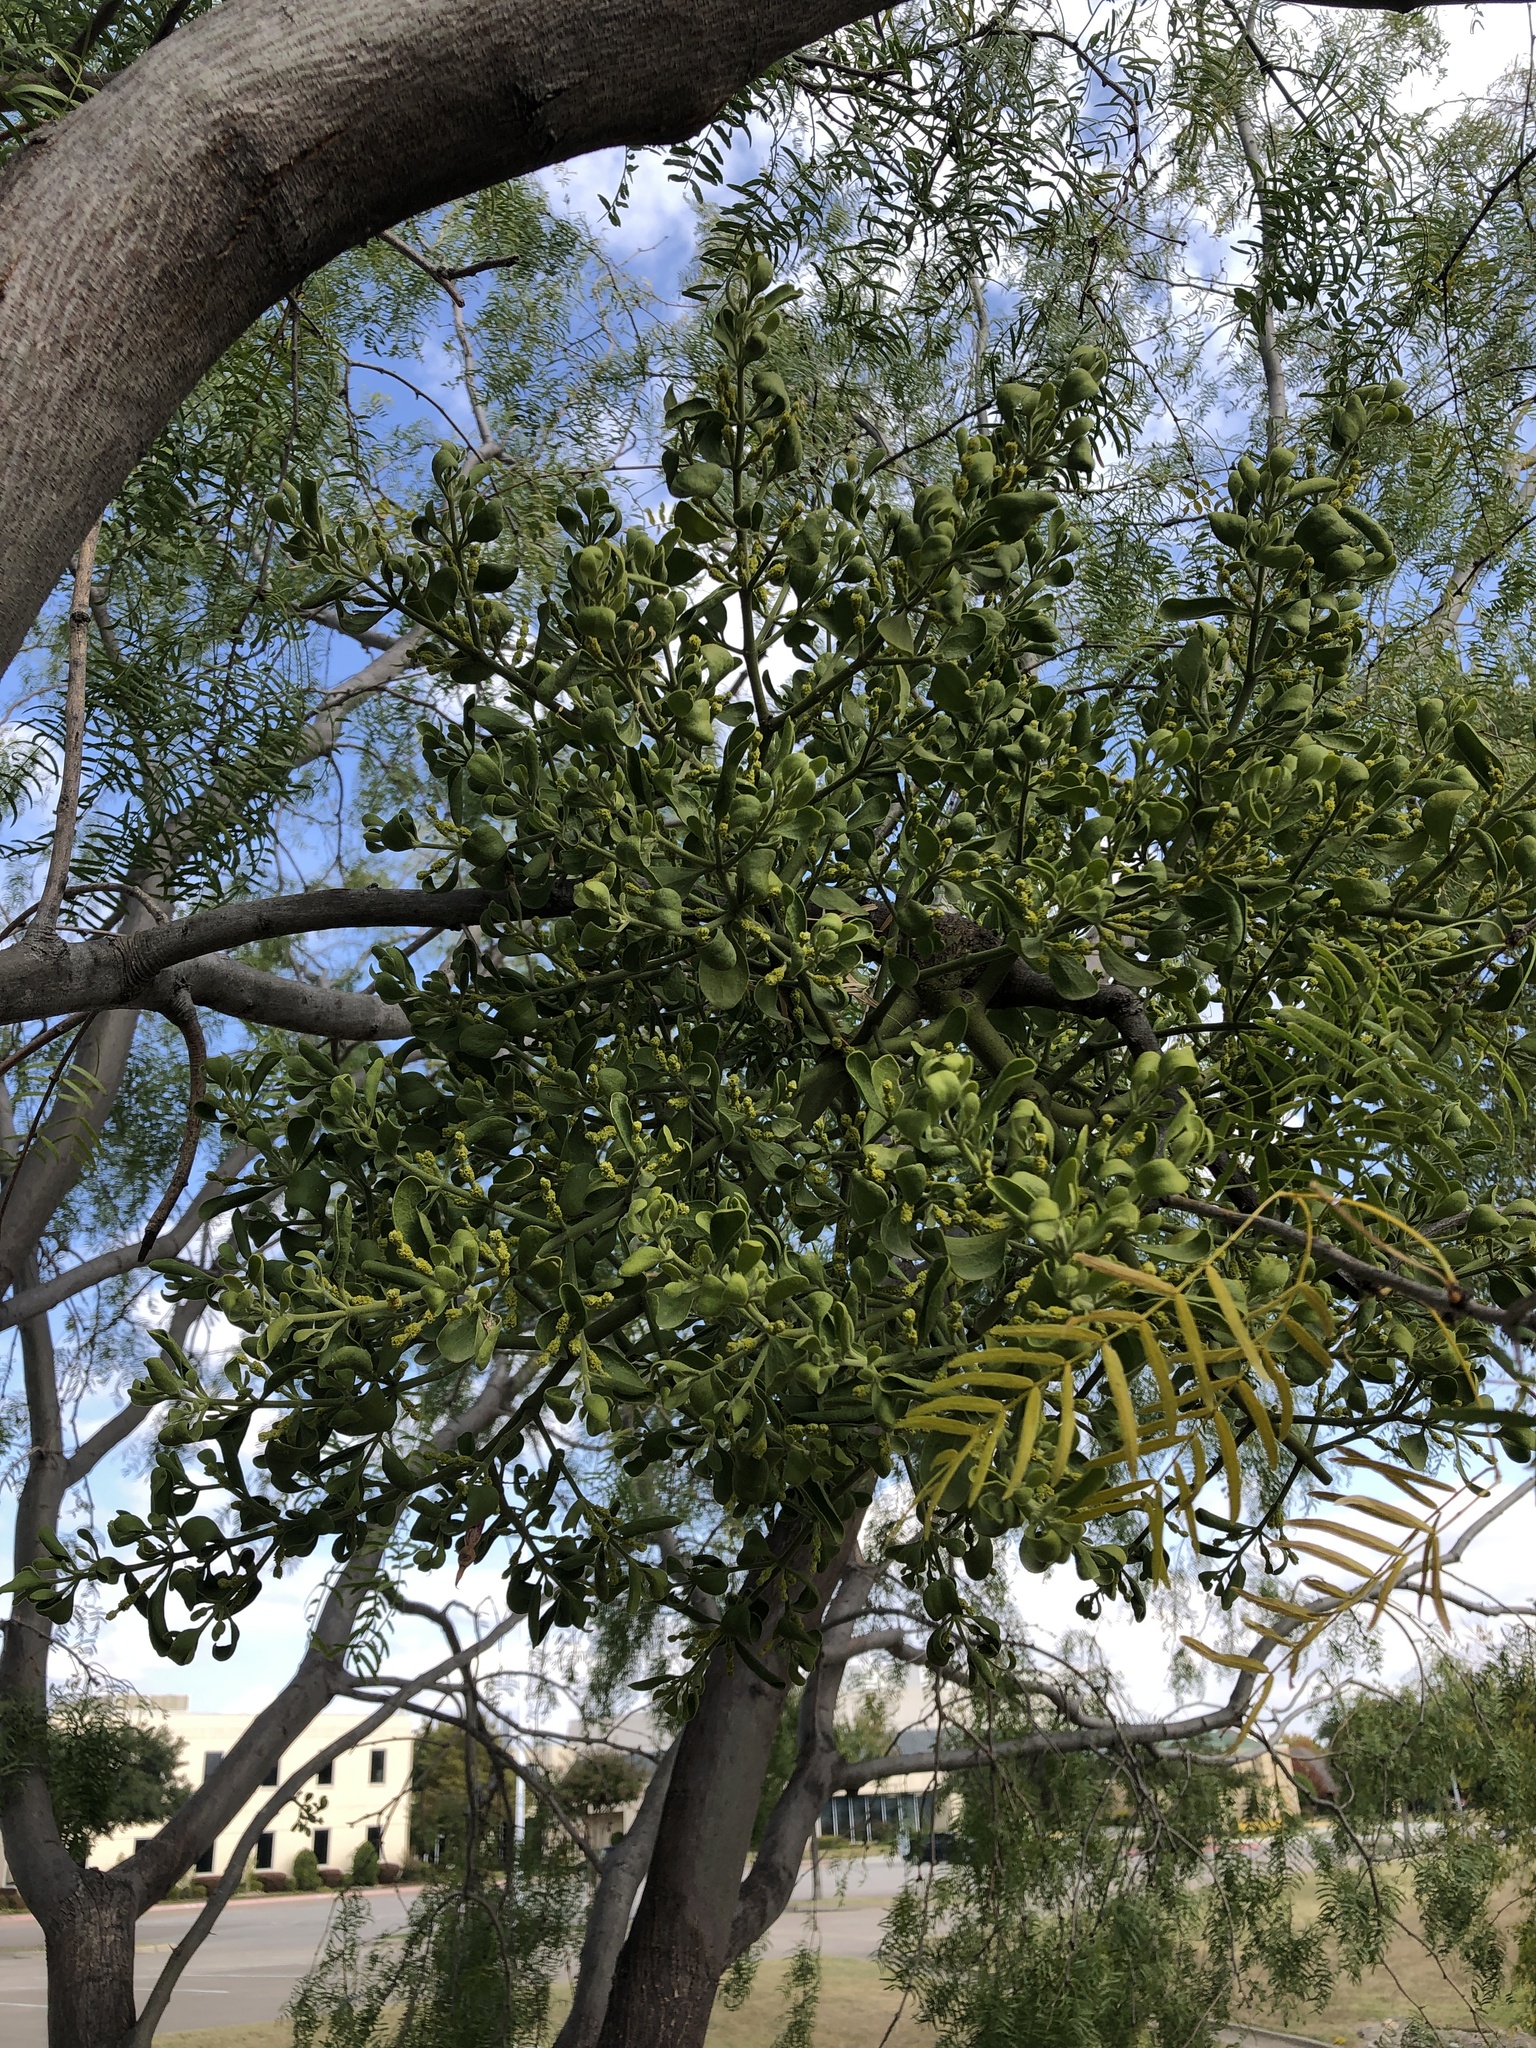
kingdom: Plantae
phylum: Tracheophyta
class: Magnoliopsida
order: Santalales
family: Viscaceae
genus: Phoradendron
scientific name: Phoradendron leucarpum
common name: Pacific mistletoe
